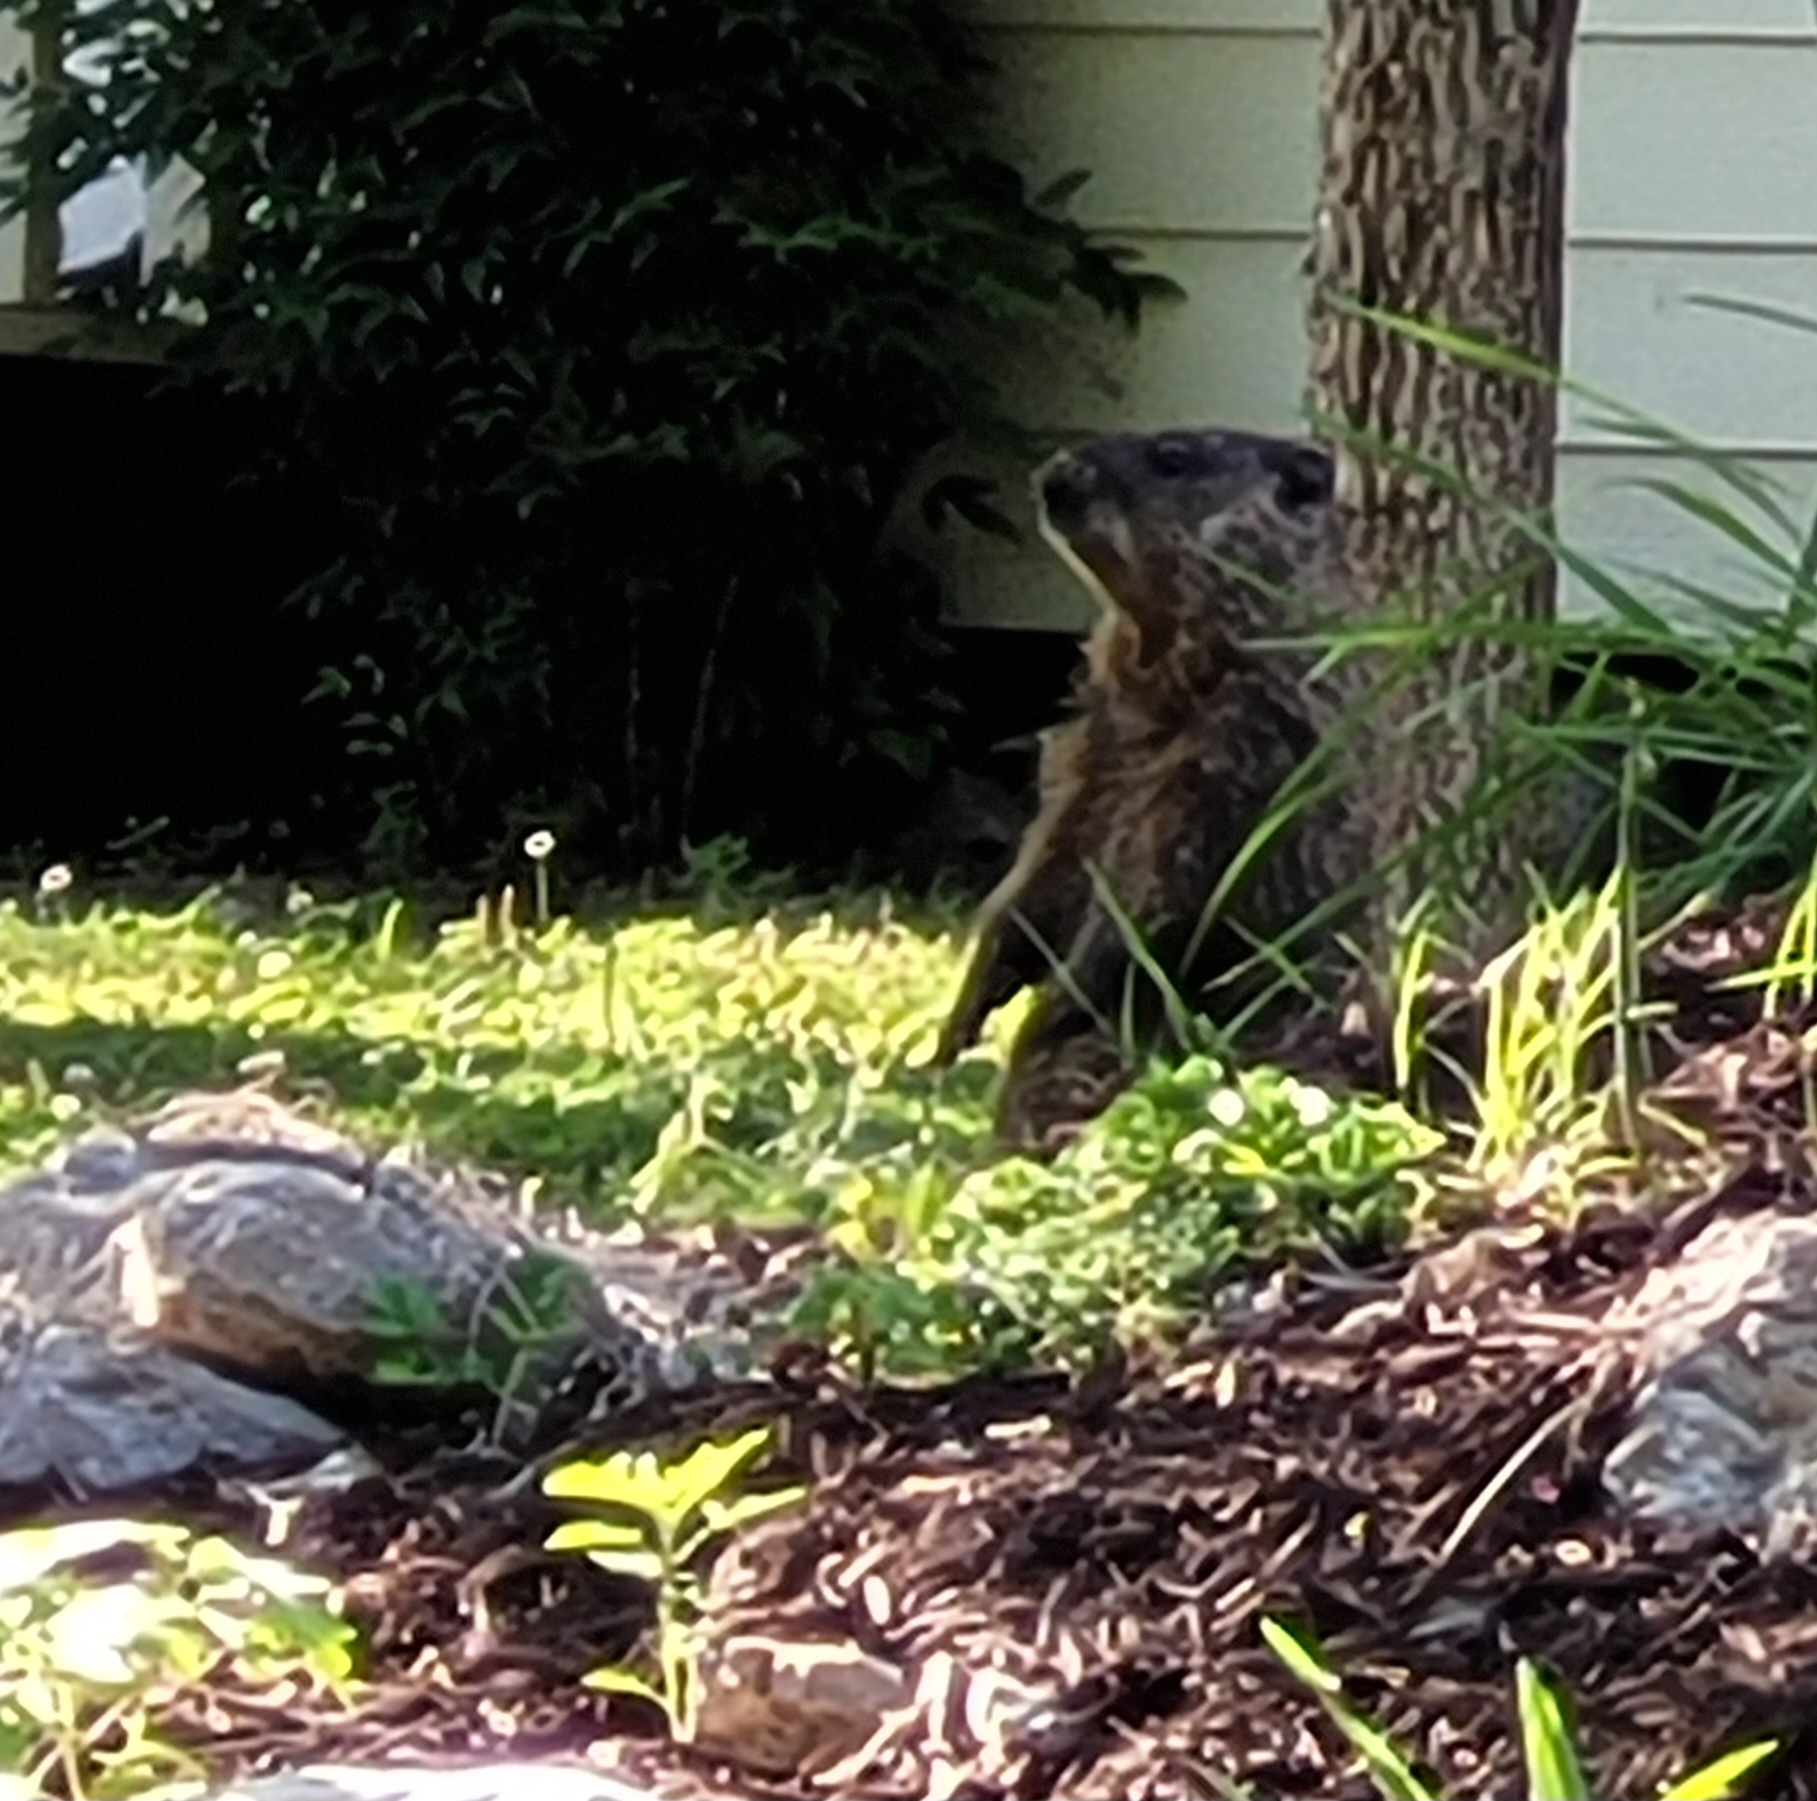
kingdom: Animalia
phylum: Chordata
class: Mammalia
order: Rodentia
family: Sciuridae
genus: Marmota
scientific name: Marmota monax
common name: Groundhog
